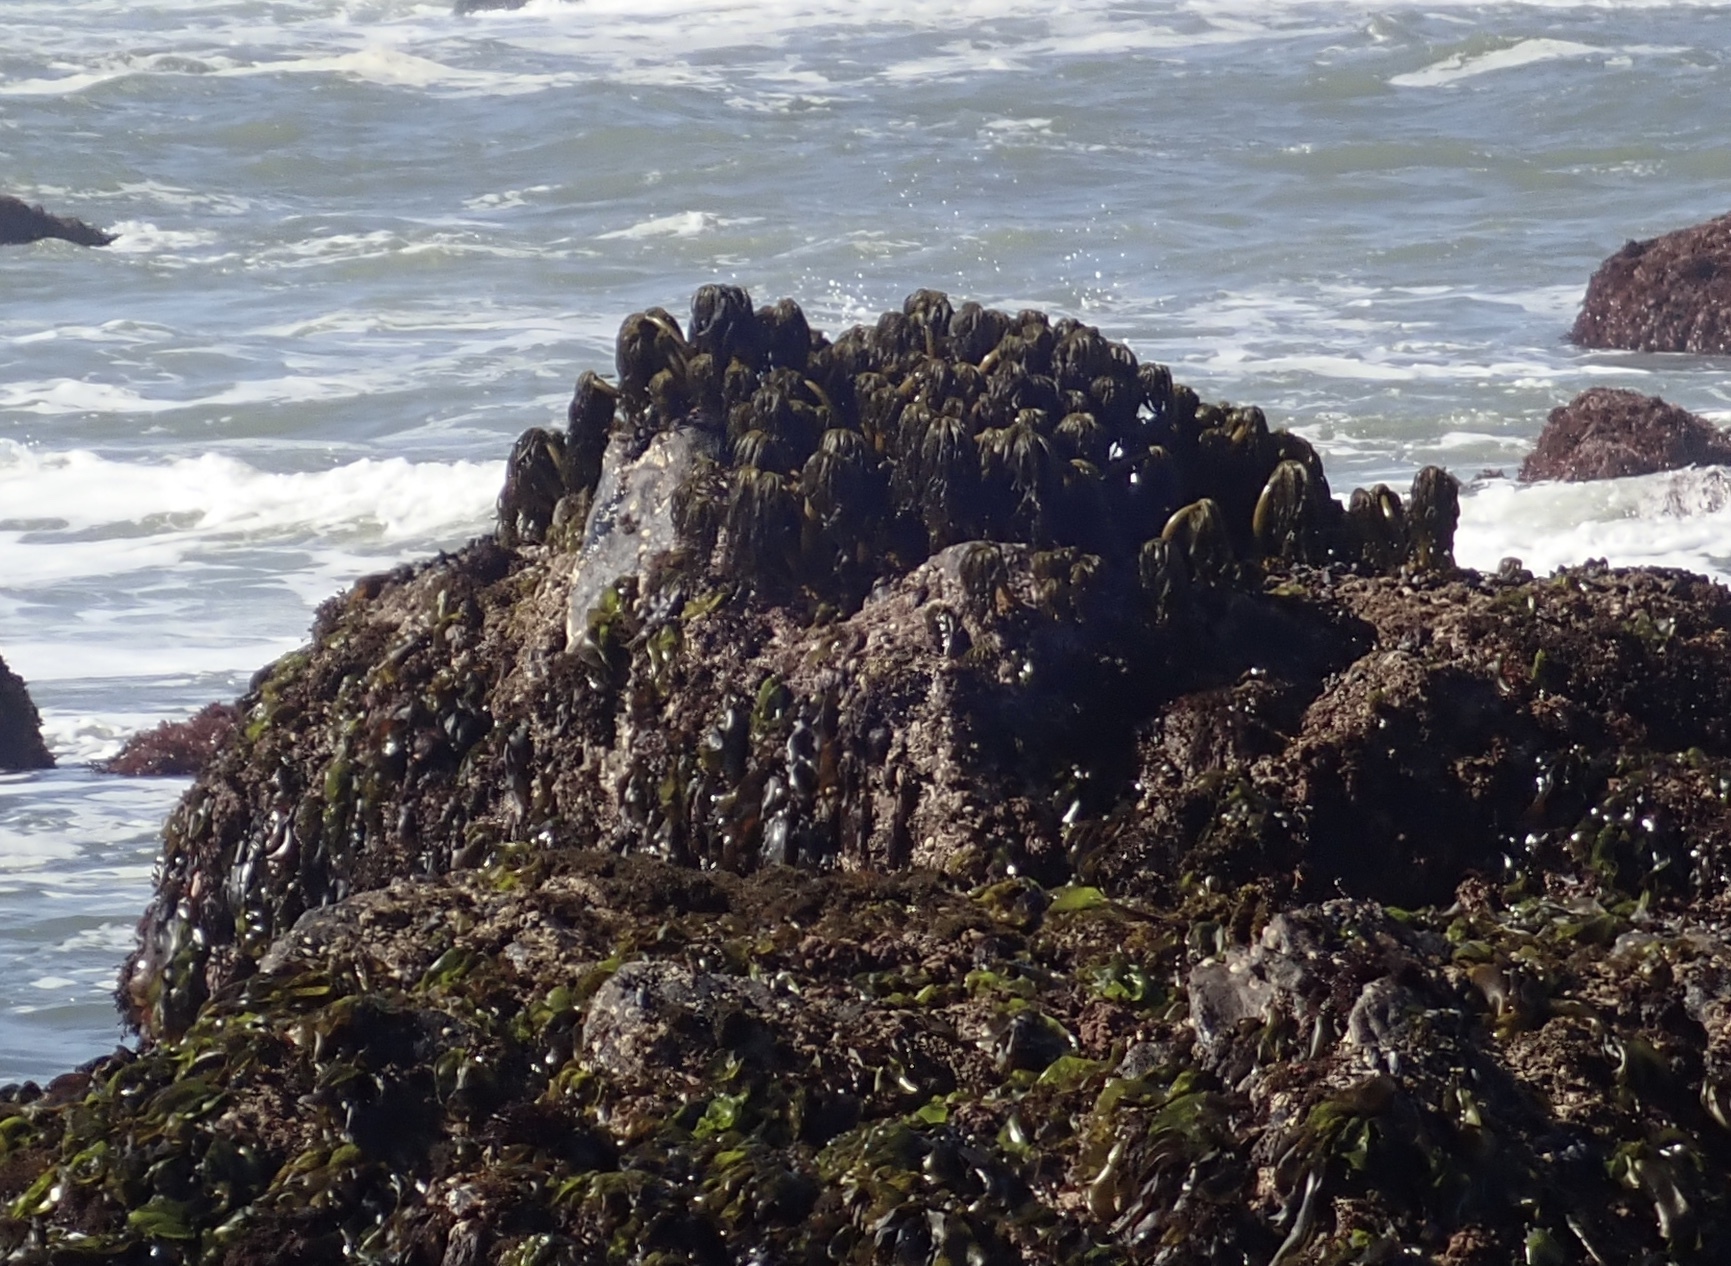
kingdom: Chromista
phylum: Ochrophyta
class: Phaeophyceae
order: Laminariales
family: Laminariaceae
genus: Postelsia
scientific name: Postelsia palmiformis
